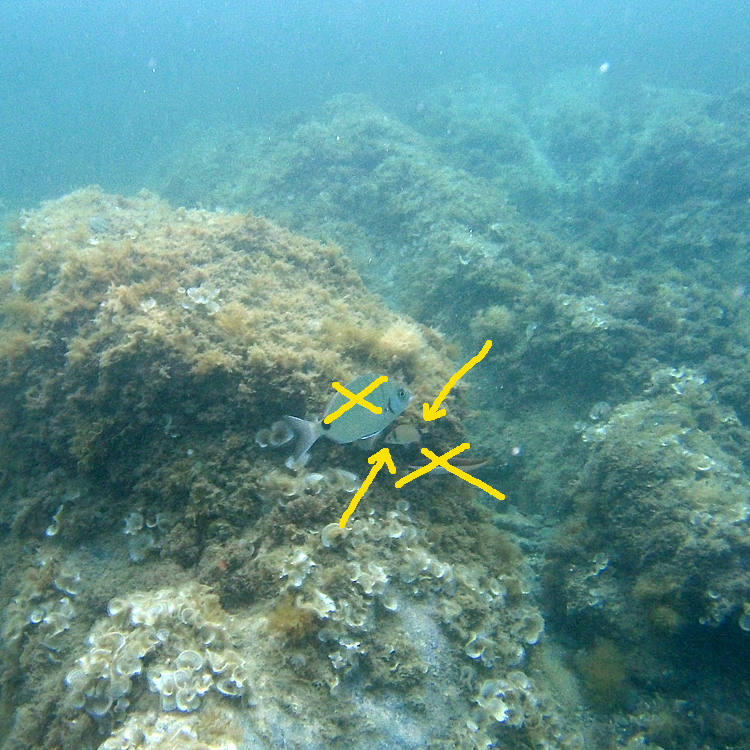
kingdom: Animalia
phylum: Chordata
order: Perciformes
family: Sparidae
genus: Diplodus
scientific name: Diplodus vulgaris
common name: Common two-banded seabream
